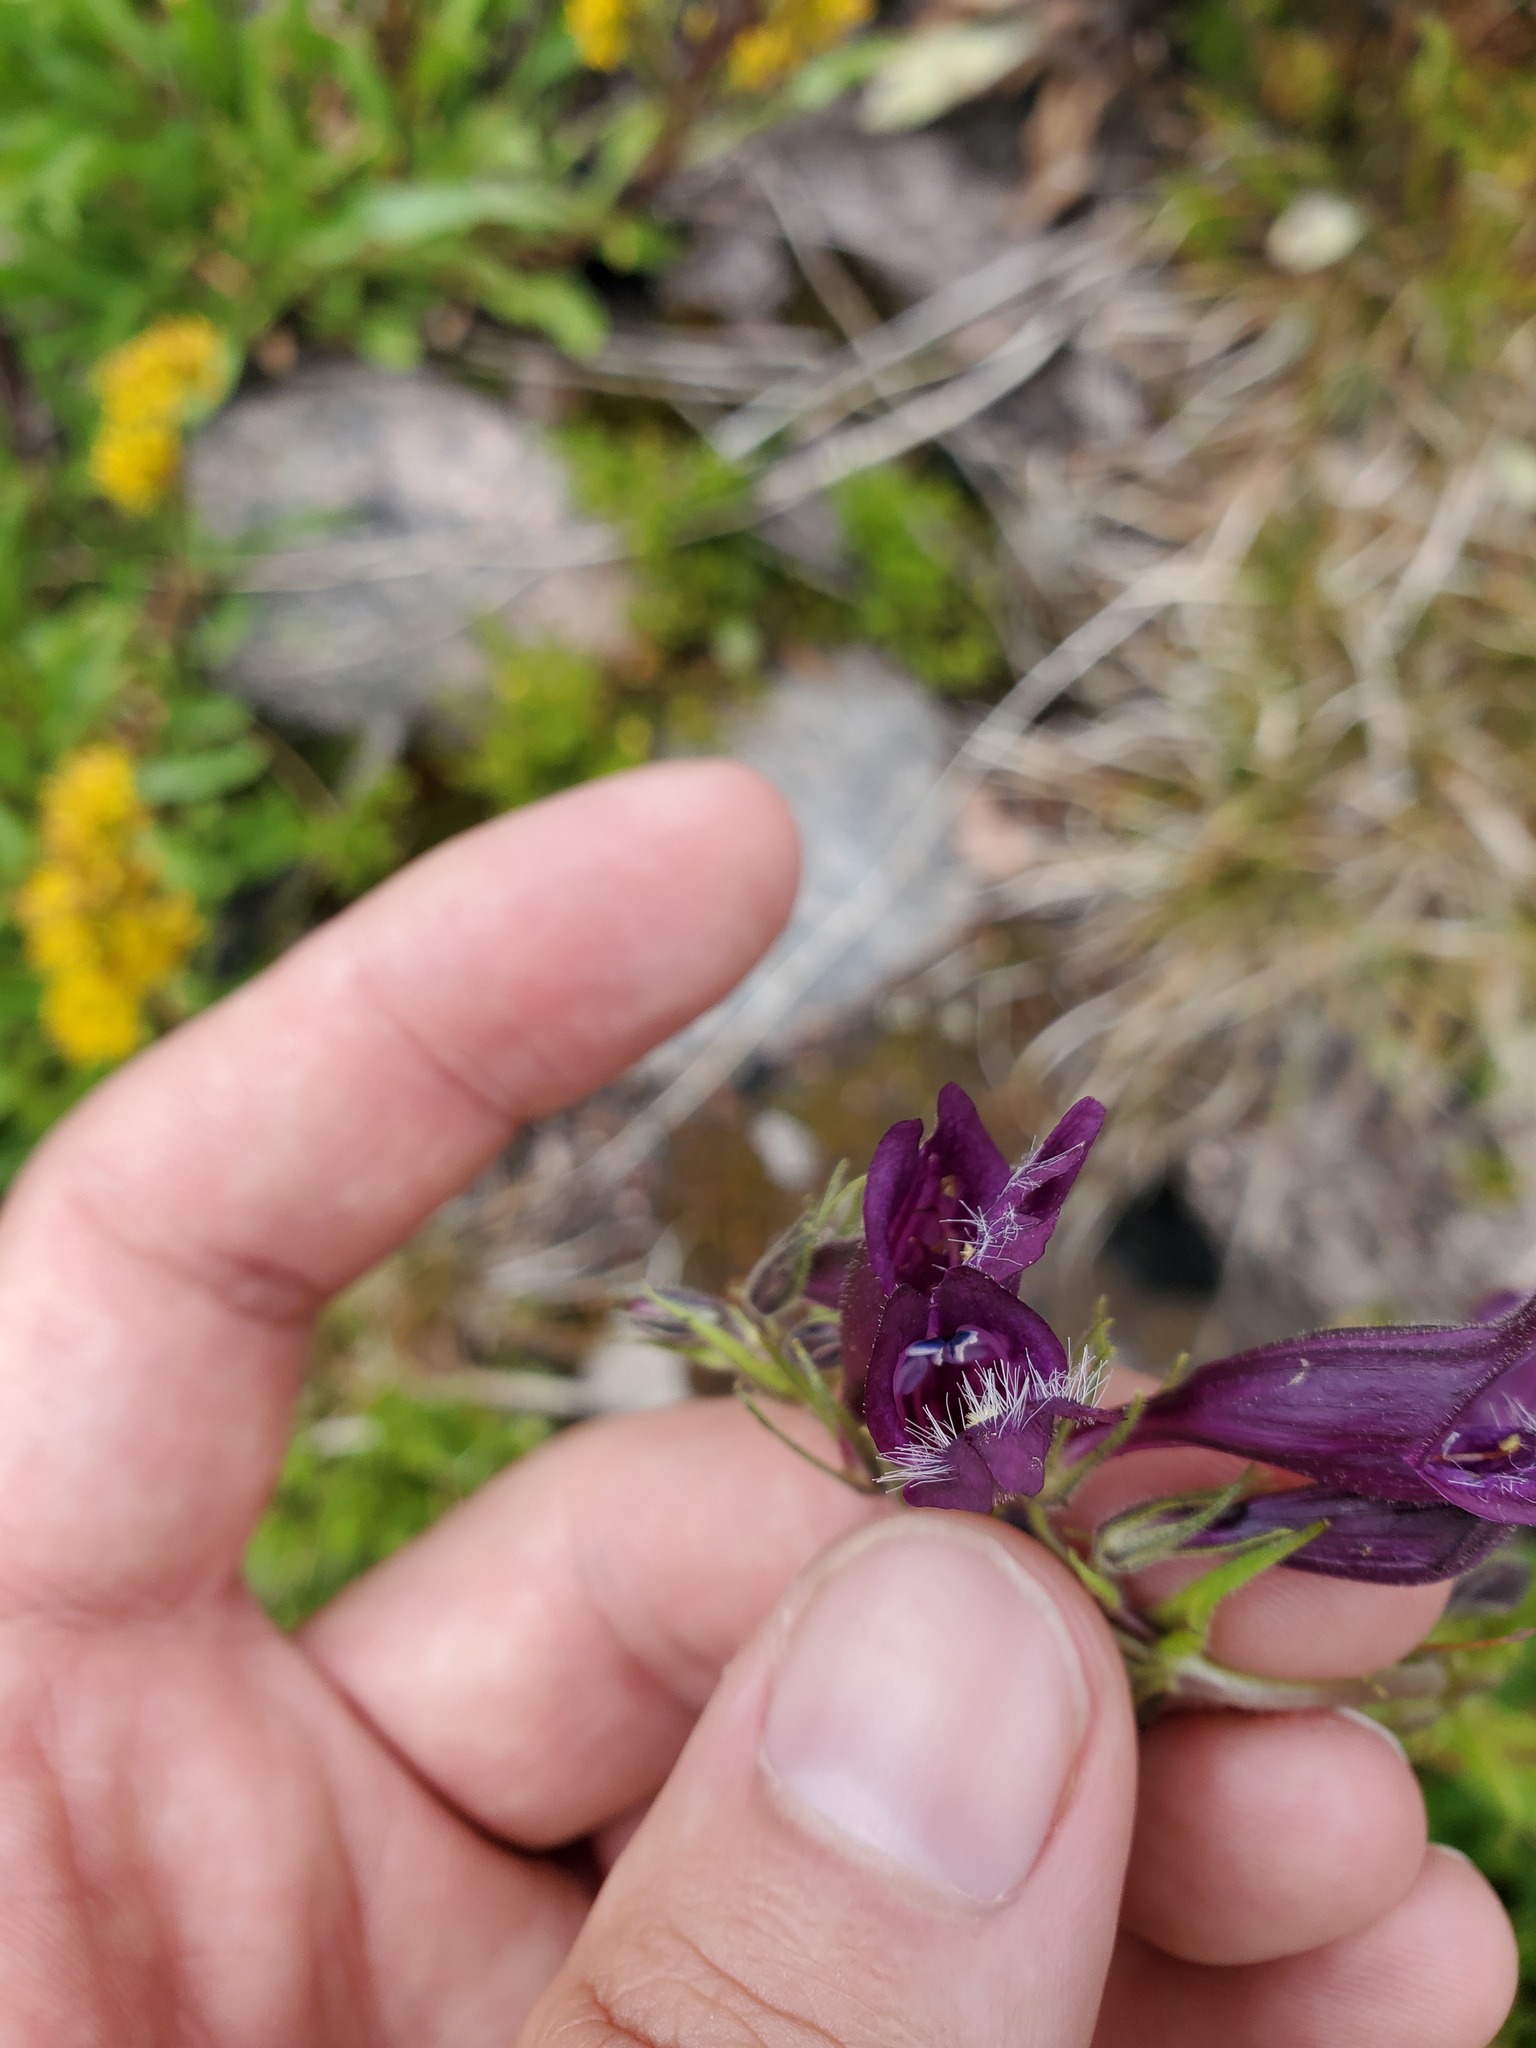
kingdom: Plantae
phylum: Tracheophyta
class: Magnoliopsida
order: Lamiales
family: Plantaginaceae
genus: Penstemon
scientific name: Penstemon whippleanus
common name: Whipple's penstemon
